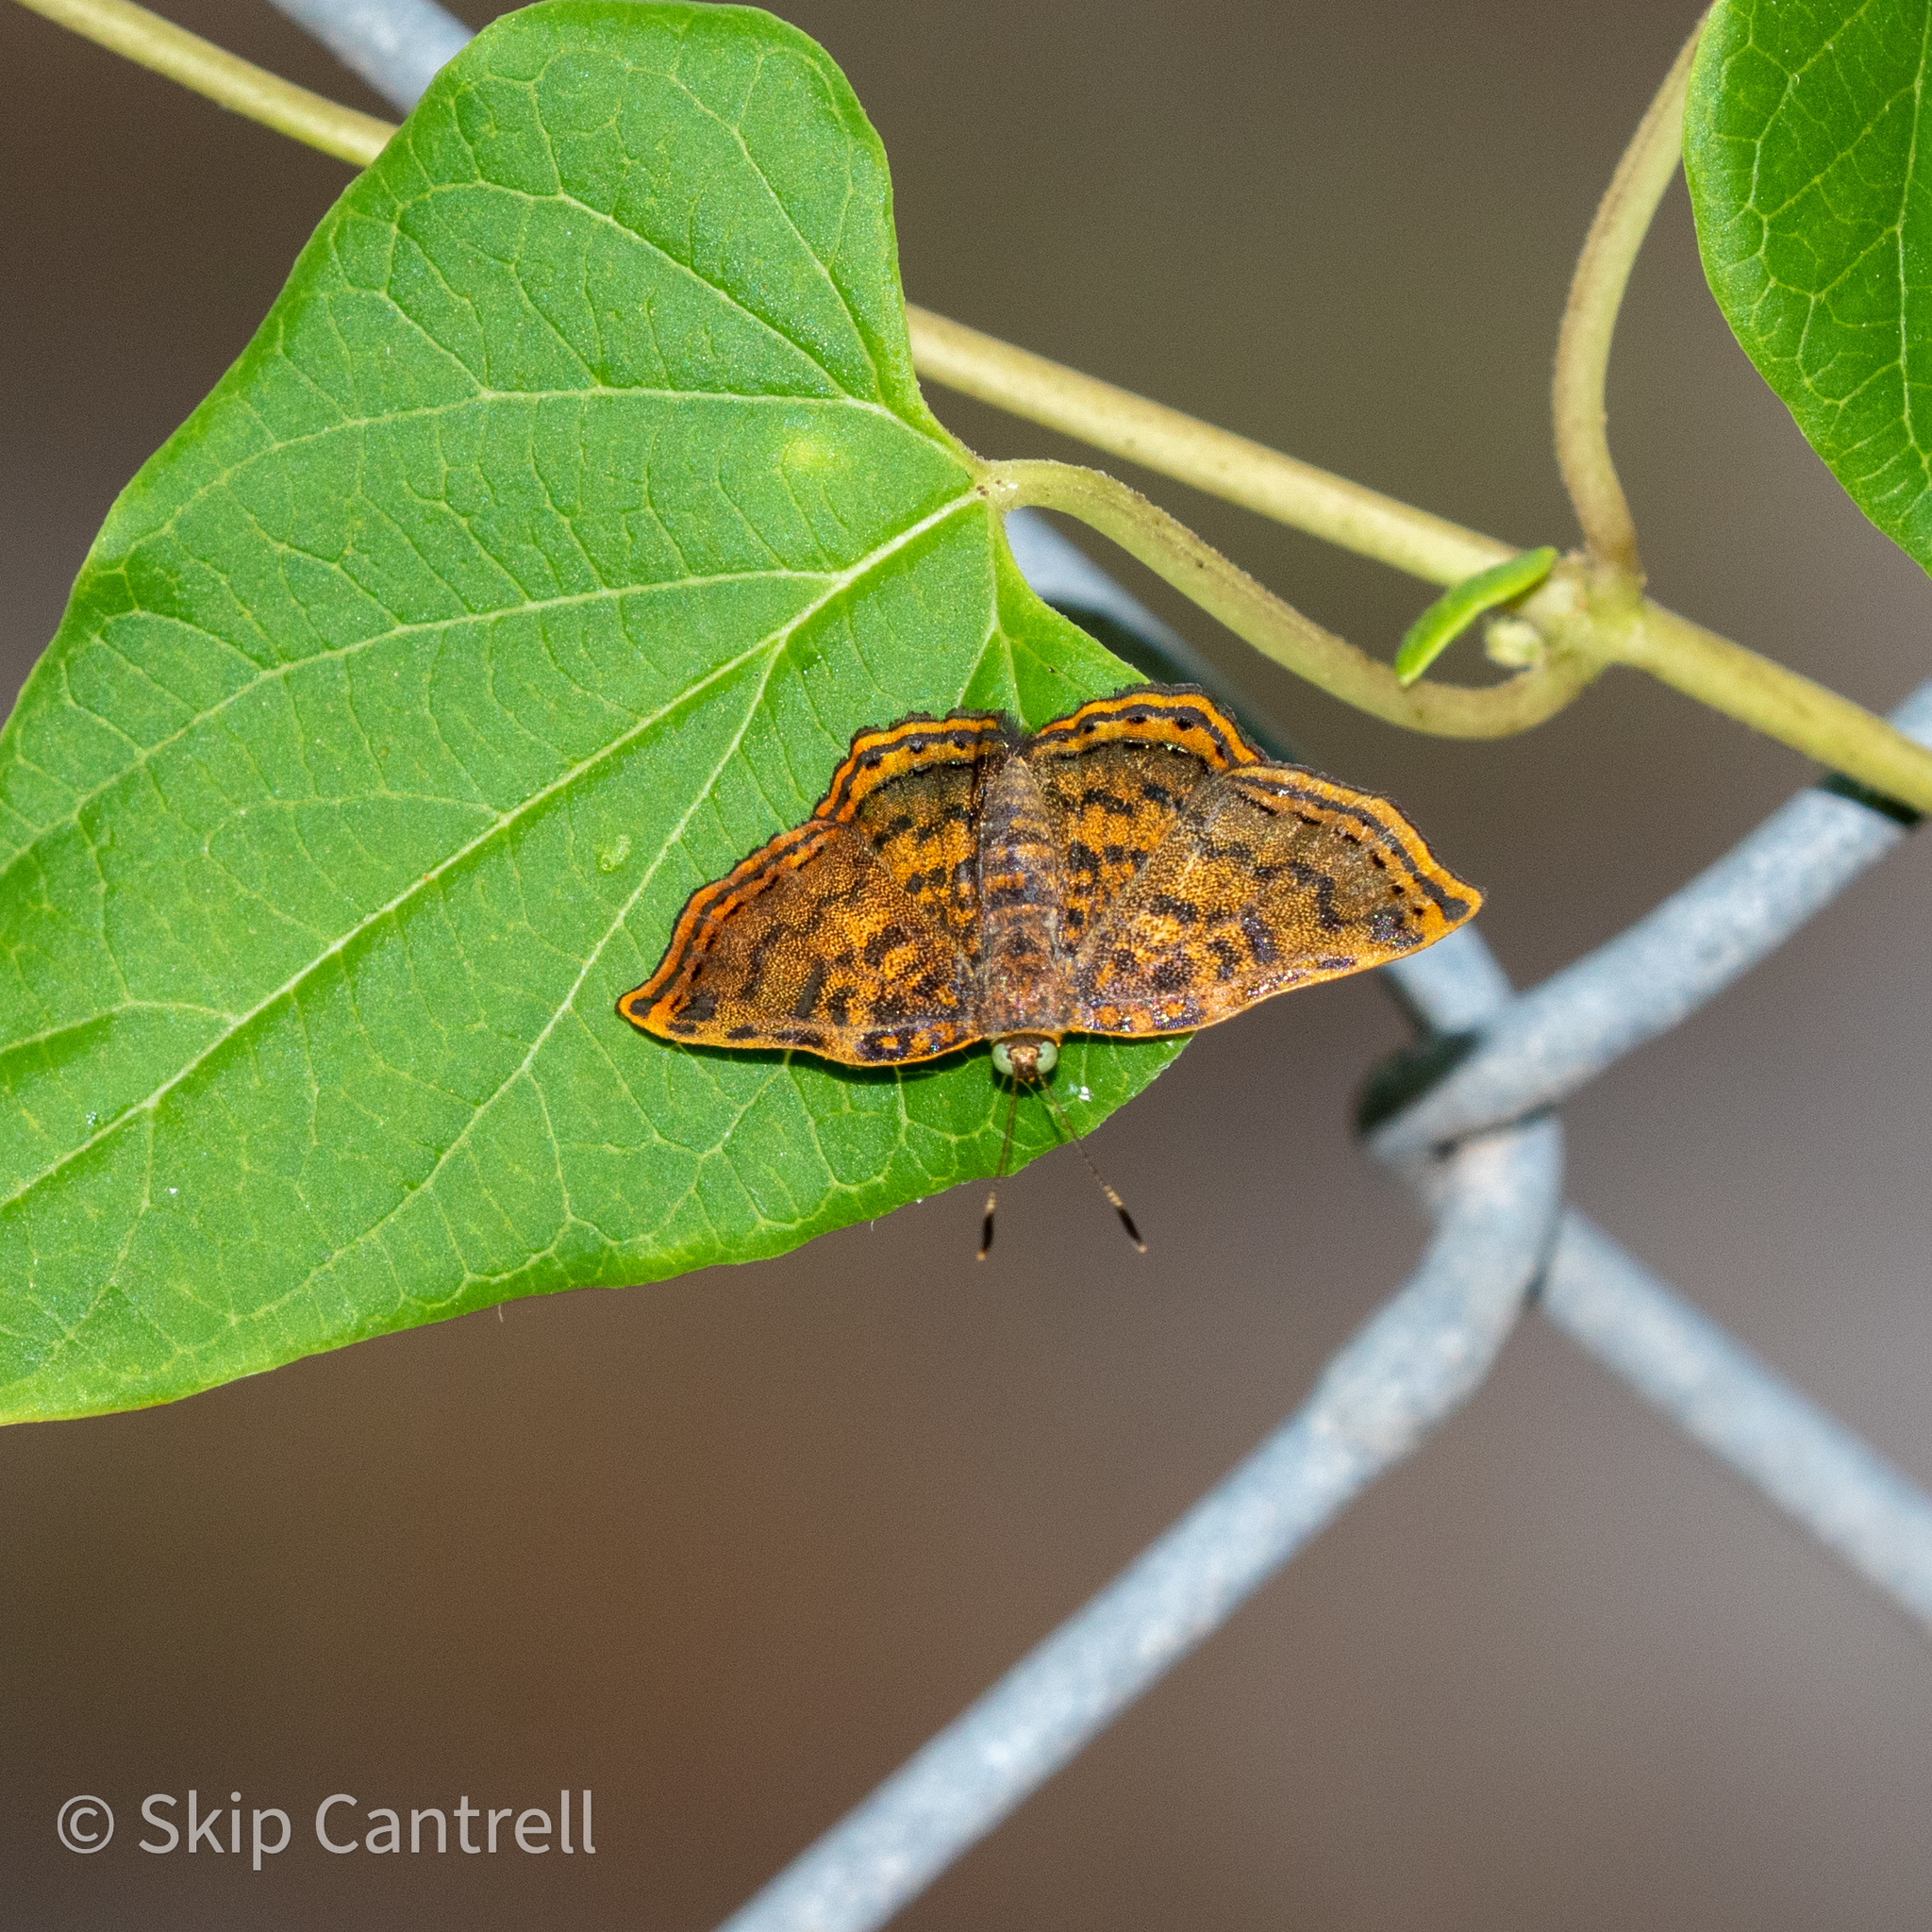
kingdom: Animalia
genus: Caria
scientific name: Caria ino
